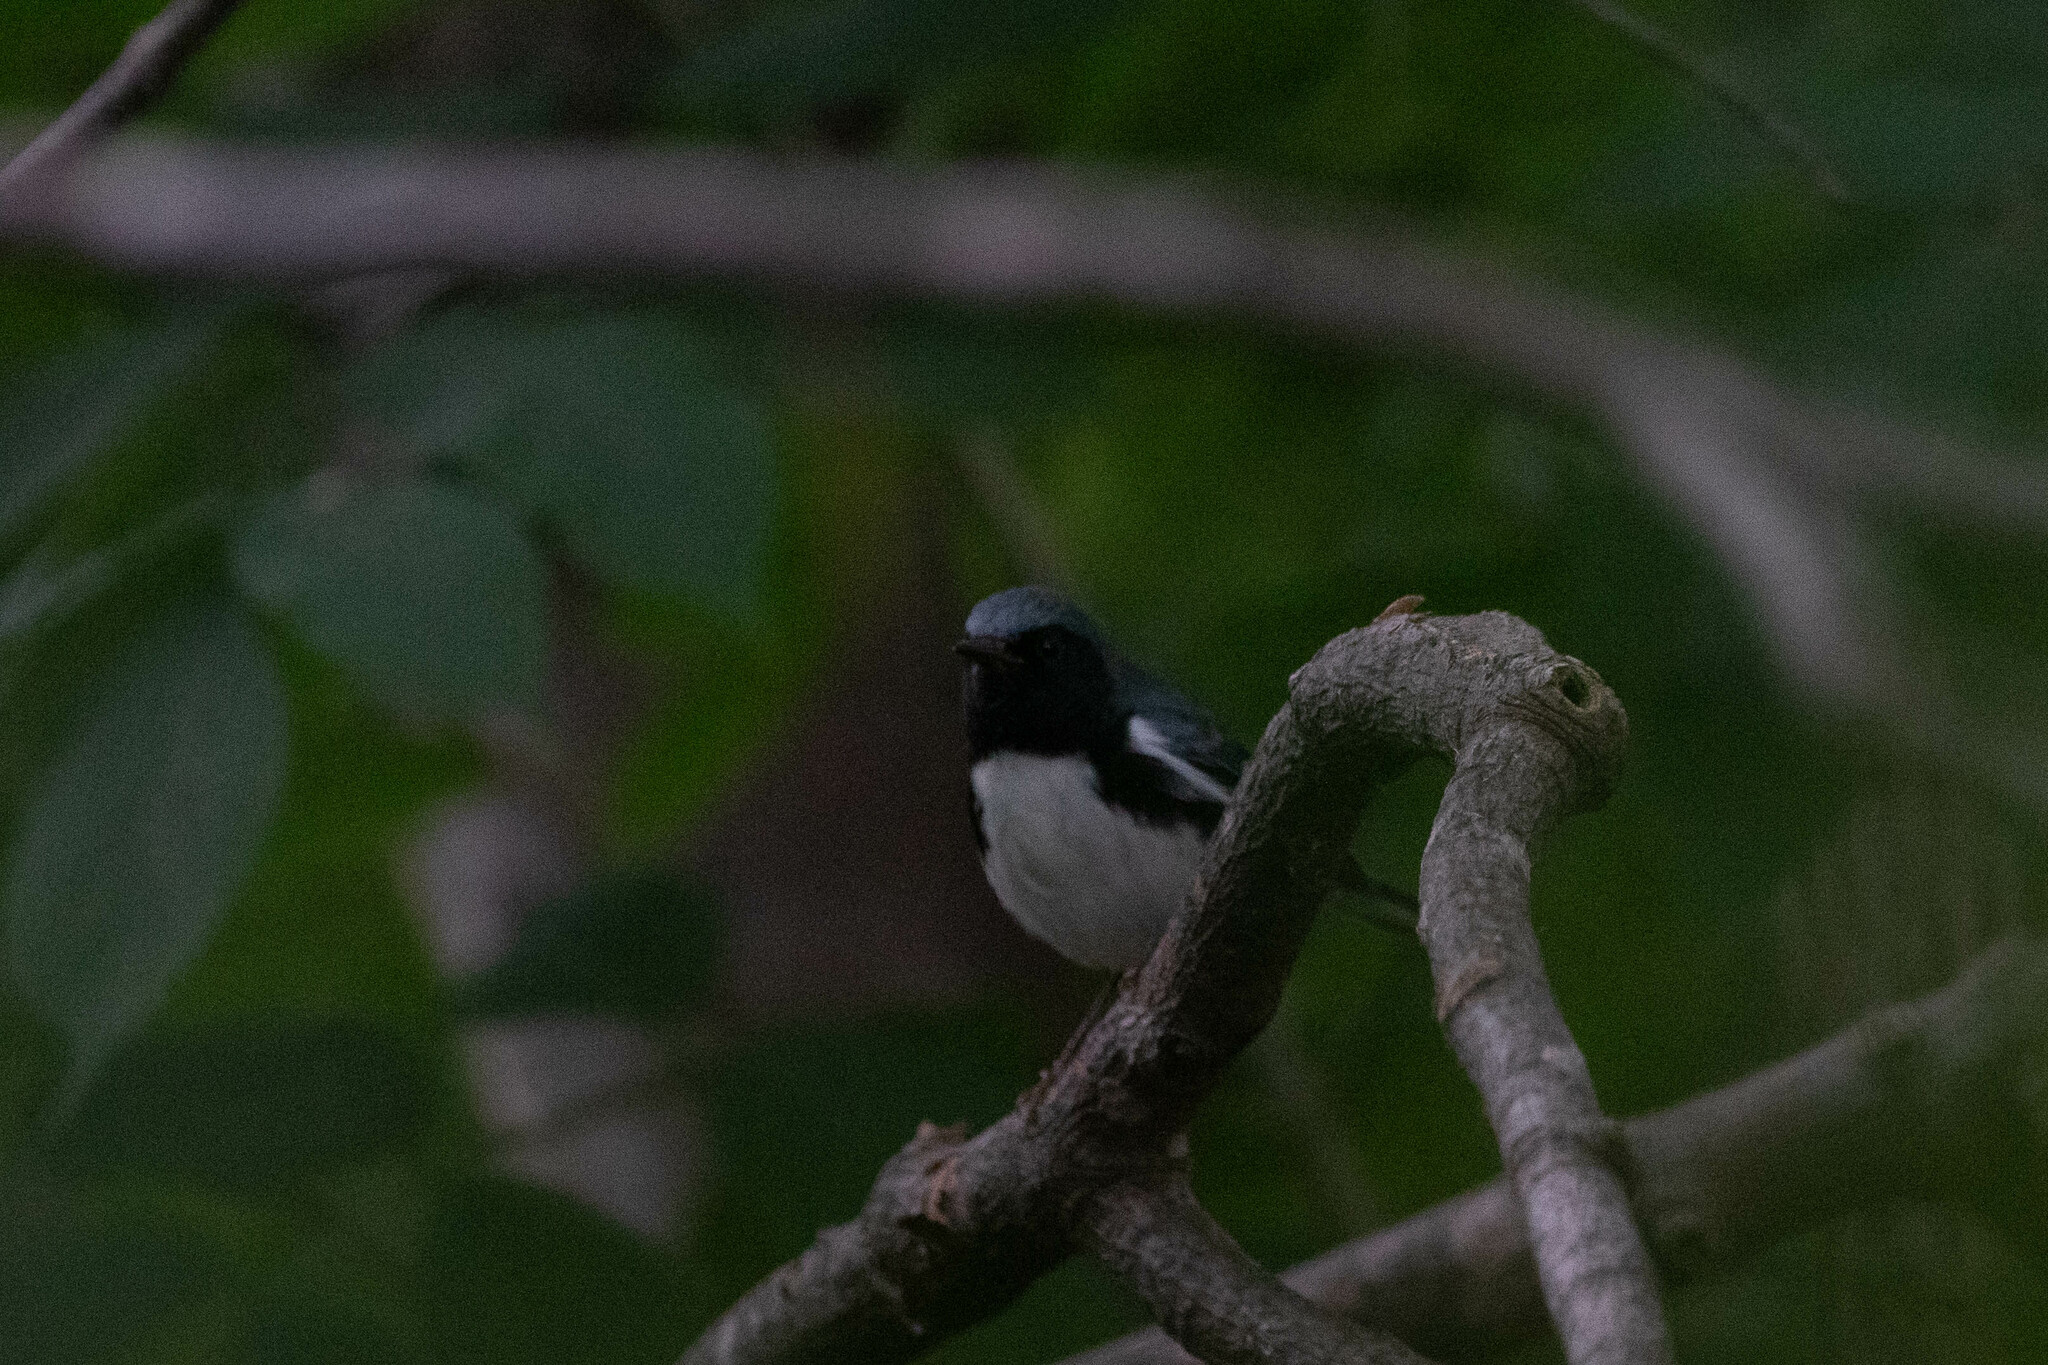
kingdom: Animalia
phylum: Chordata
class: Aves
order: Passeriformes
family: Parulidae
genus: Setophaga
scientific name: Setophaga caerulescens
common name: Black-throated blue warbler
